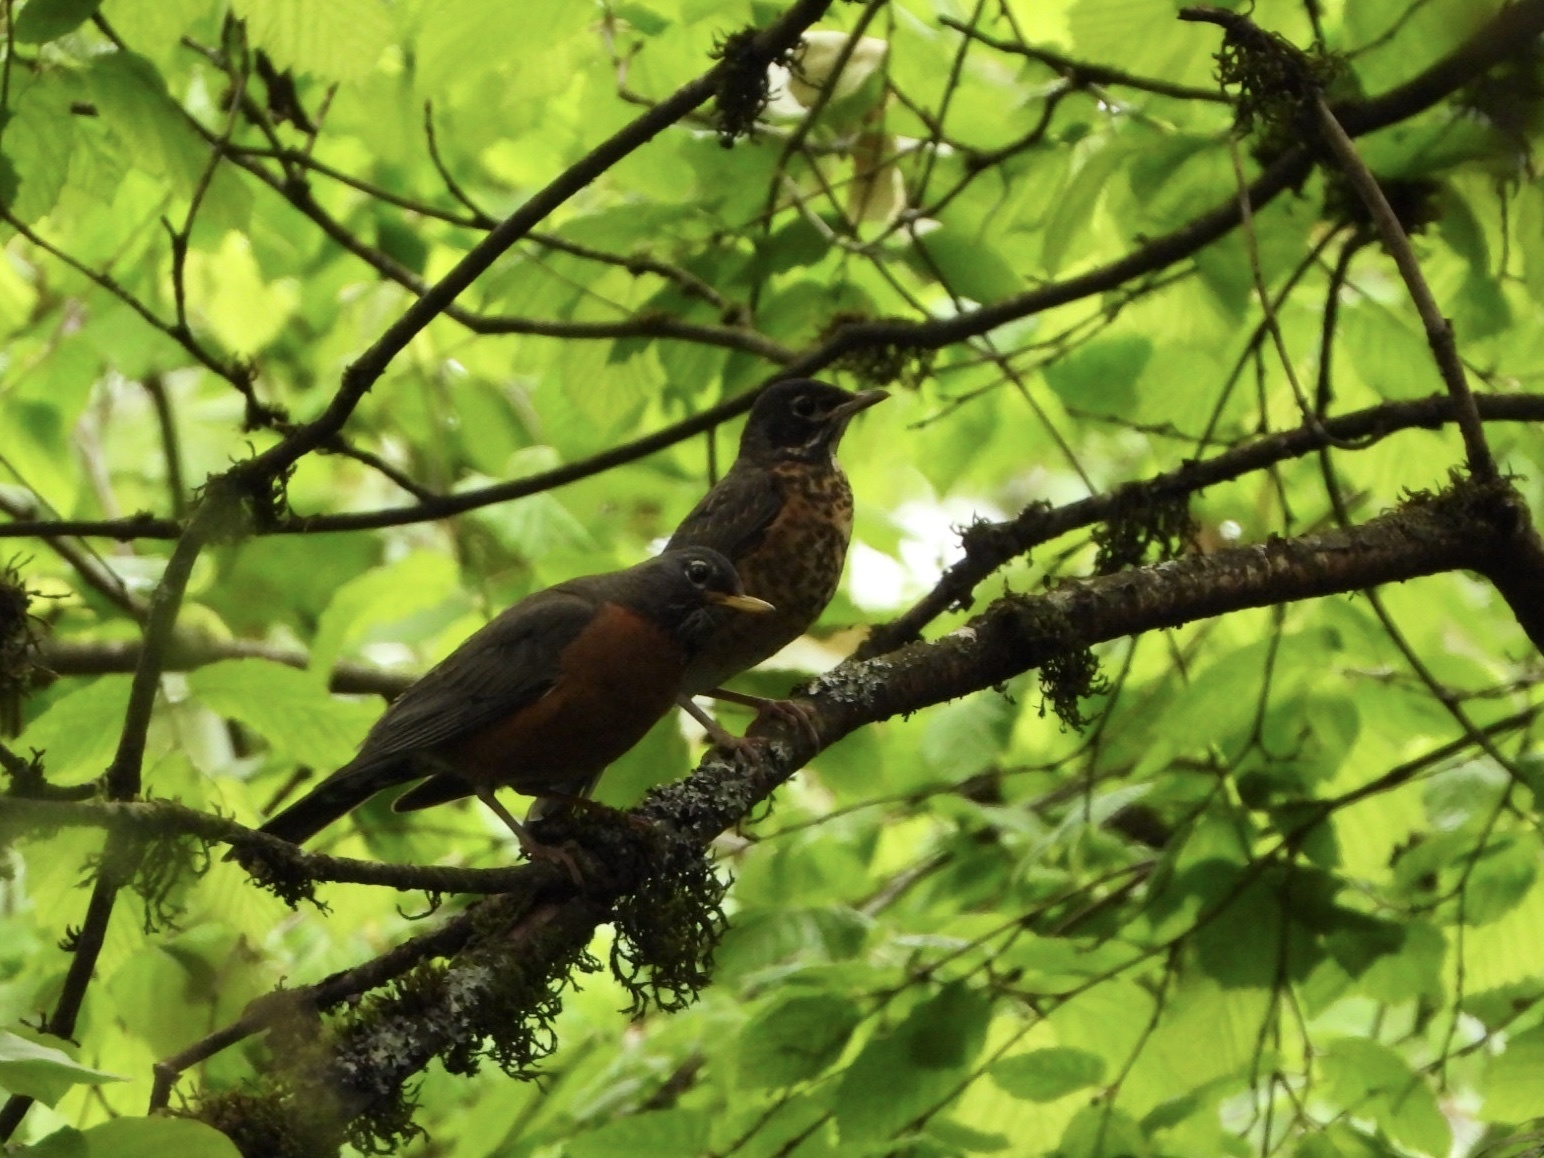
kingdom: Animalia
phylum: Chordata
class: Aves
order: Passeriformes
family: Turdidae
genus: Turdus
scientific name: Turdus migratorius
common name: American robin
